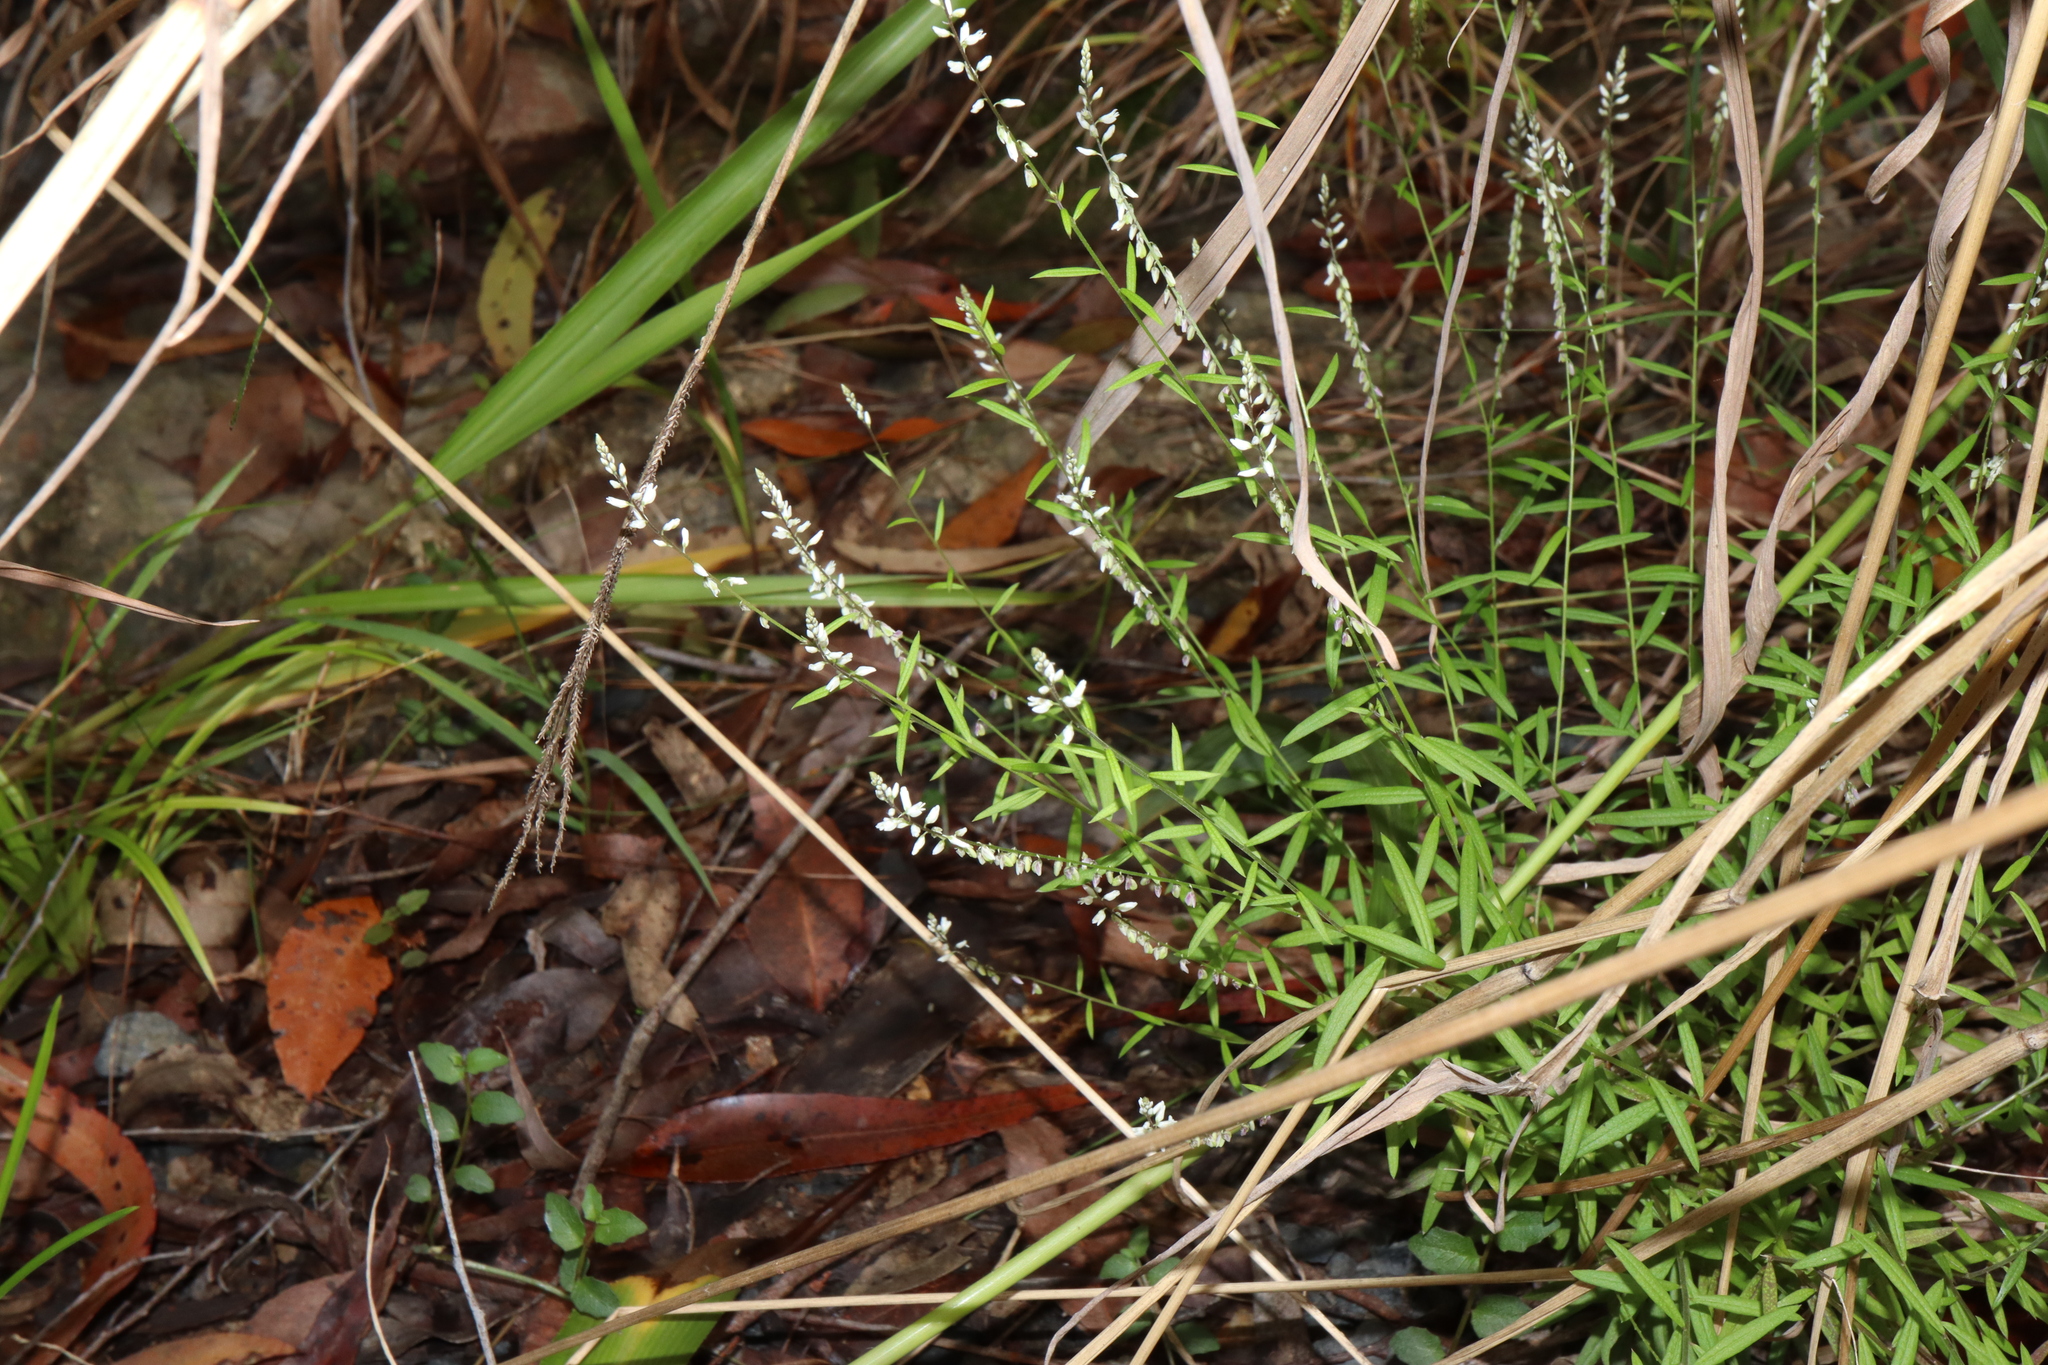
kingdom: Plantae
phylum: Tracheophyta
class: Magnoliopsida
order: Fabales
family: Polygalaceae
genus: Polygala
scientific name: Polygala paniculata
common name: Orosne
